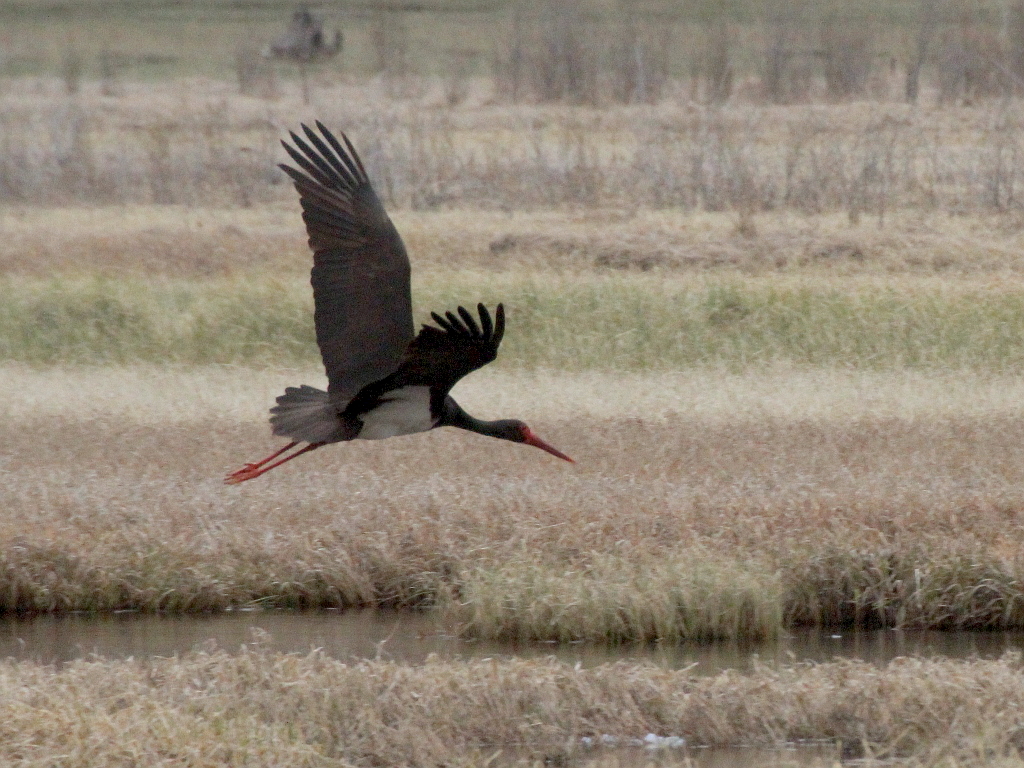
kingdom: Animalia
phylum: Chordata
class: Aves
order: Ciconiiformes
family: Ciconiidae
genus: Ciconia
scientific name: Ciconia nigra
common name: Black stork
